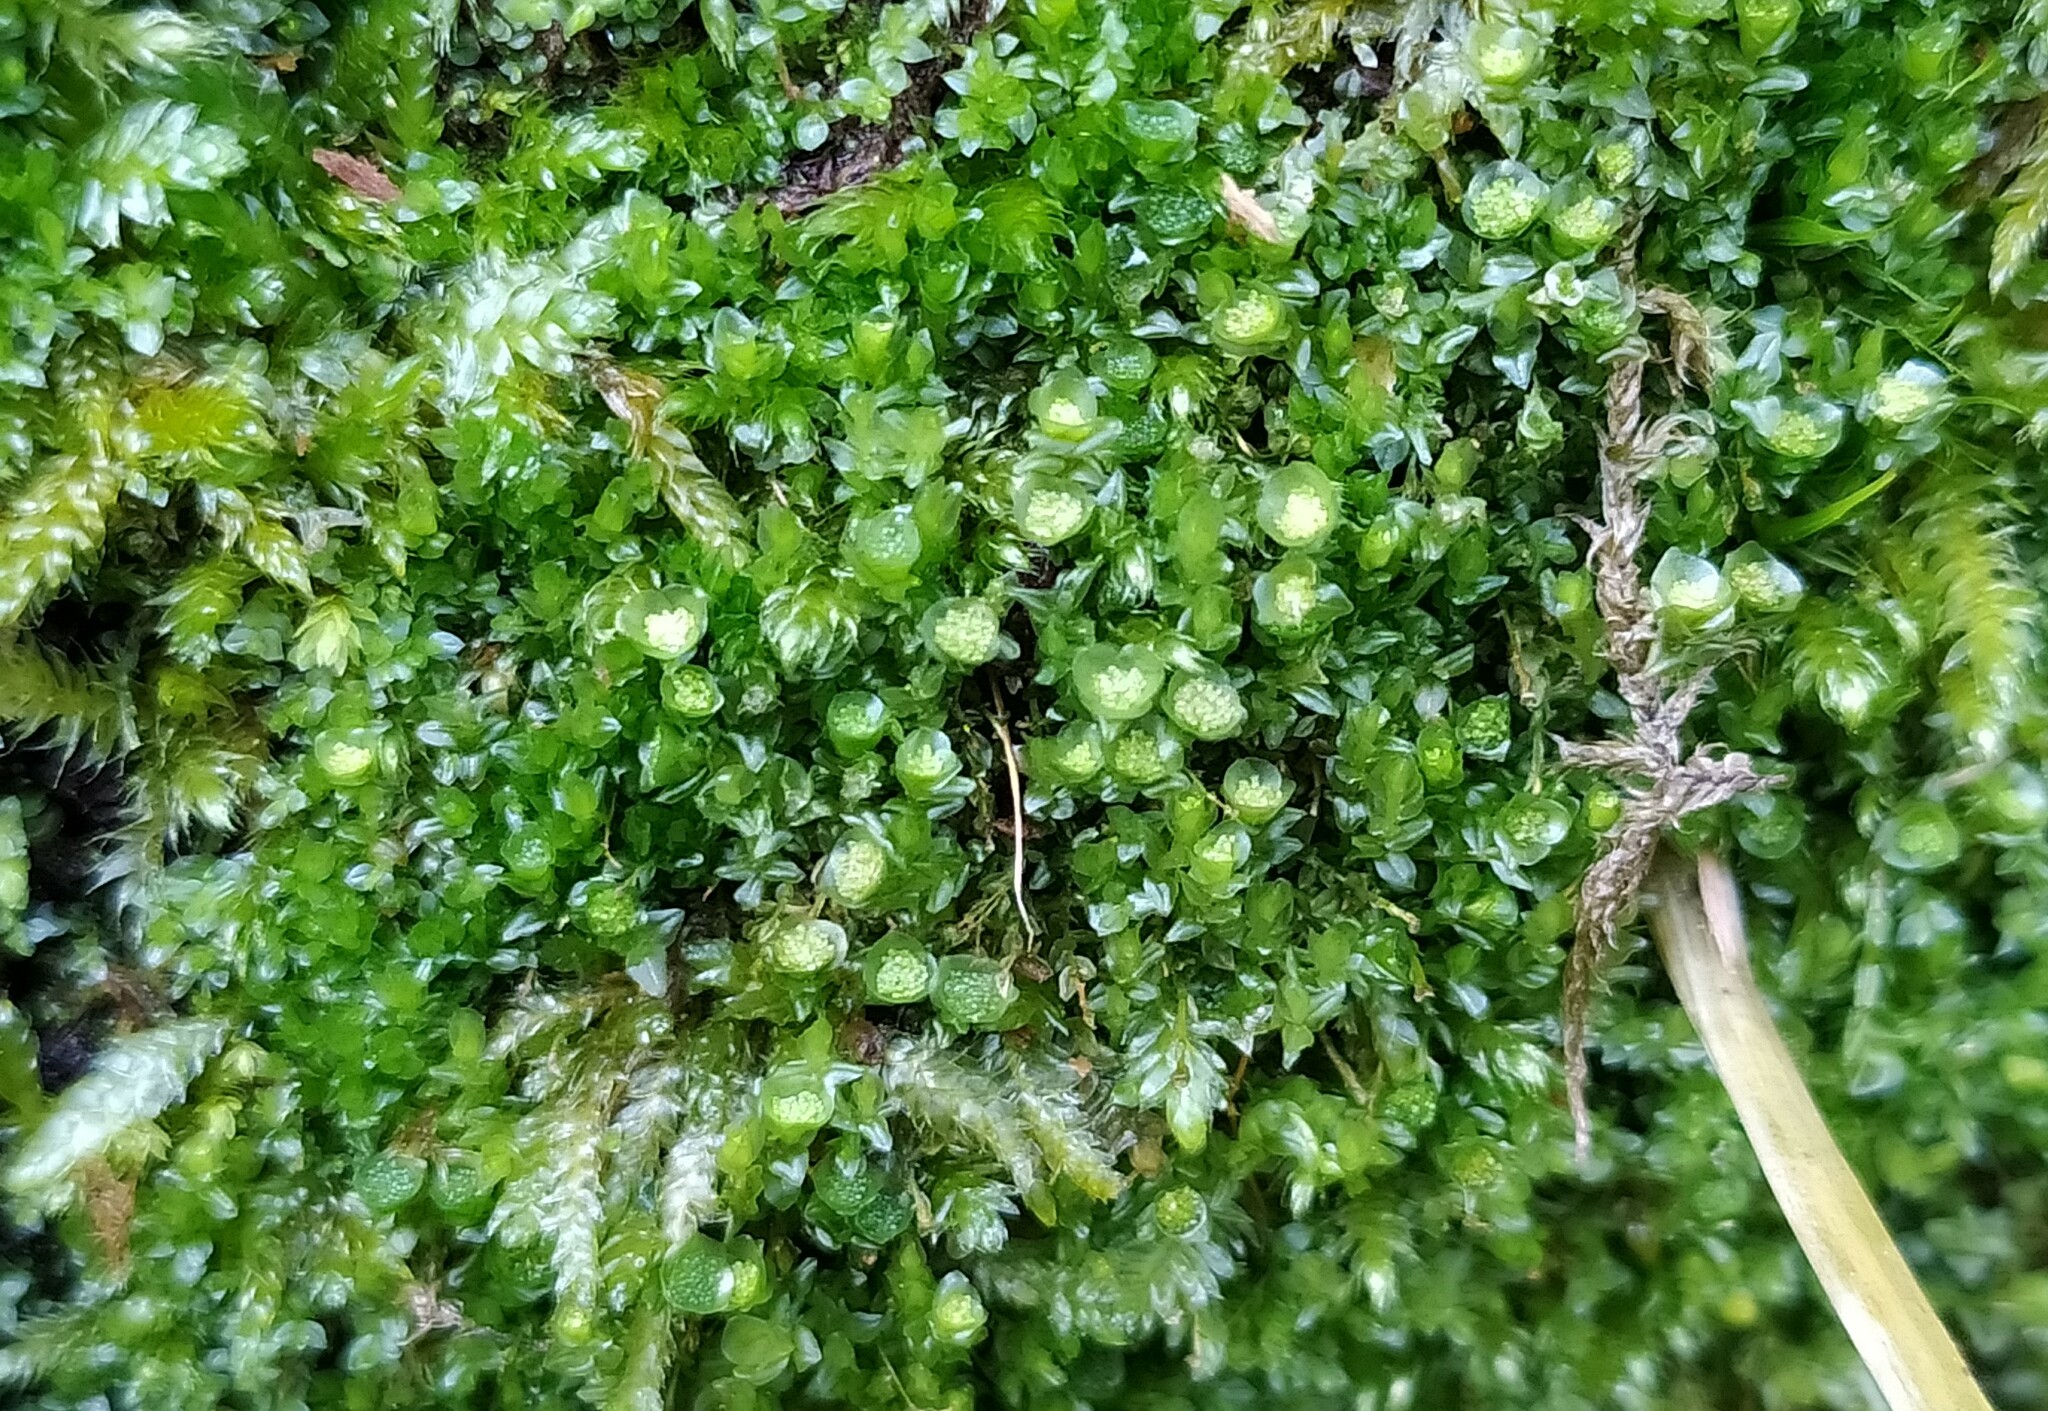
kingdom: Plantae
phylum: Bryophyta
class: Polytrichopsida
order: Tetraphidales
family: Tetraphidaceae
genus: Tetraphis
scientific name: Tetraphis pellucida
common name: Common four-toothed moss
